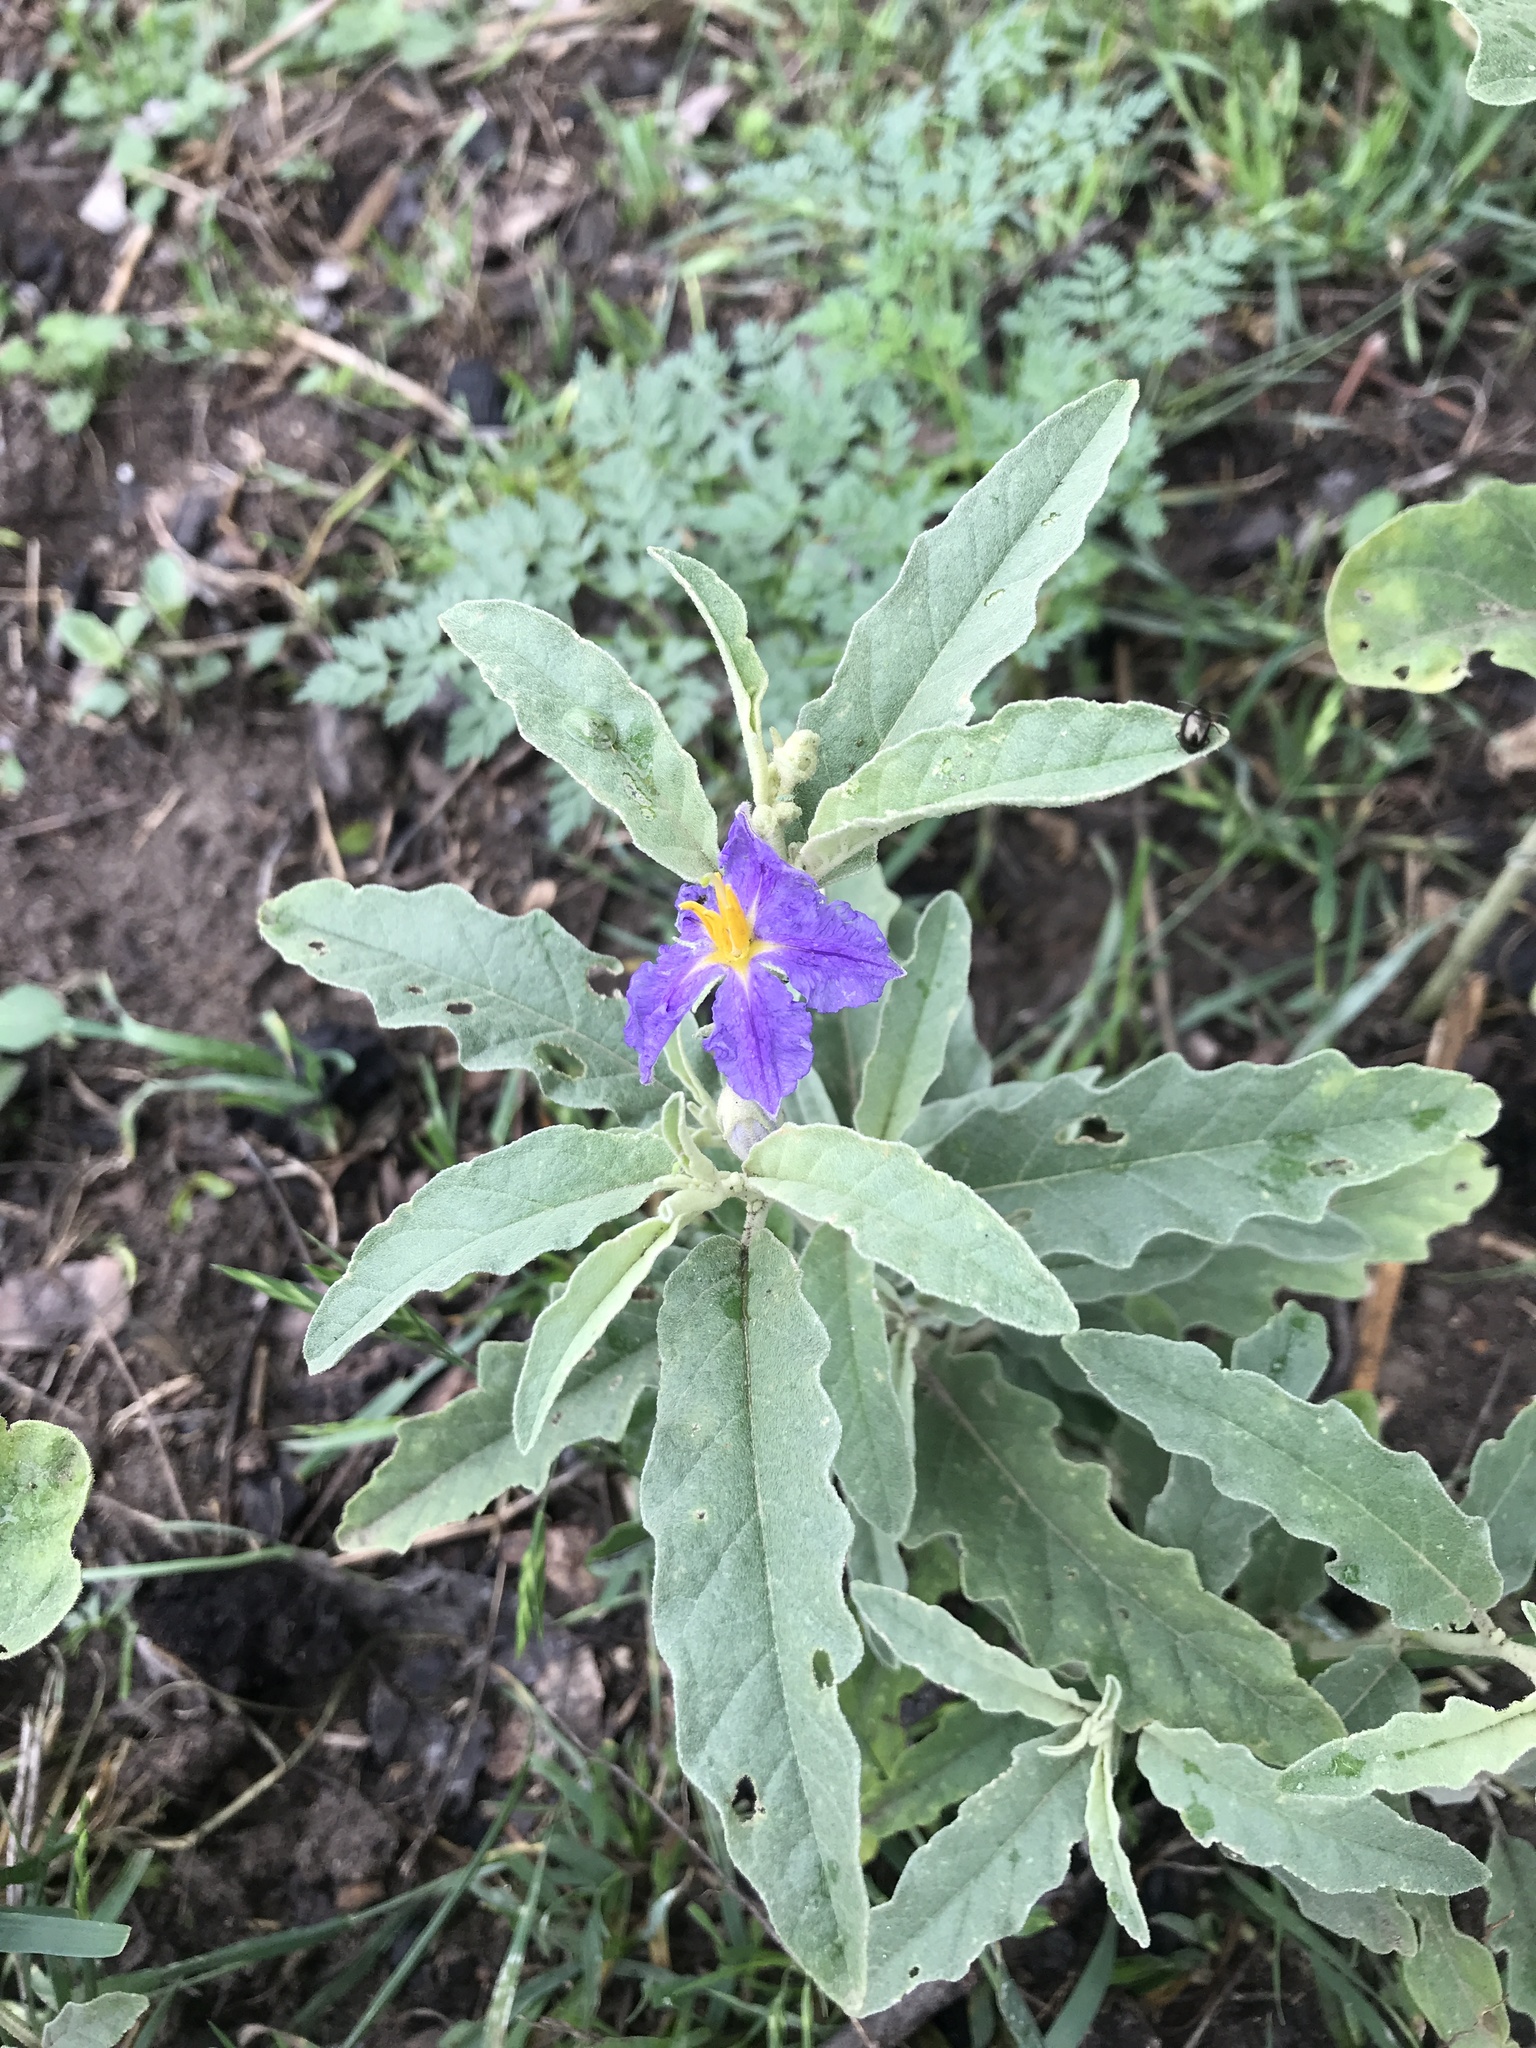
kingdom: Plantae
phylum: Tracheophyta
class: Magnoliopsida
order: Solanales
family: Solanaceae
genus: Solanum
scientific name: Solanum elaeagnifolium
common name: Silverleaf nightshade
